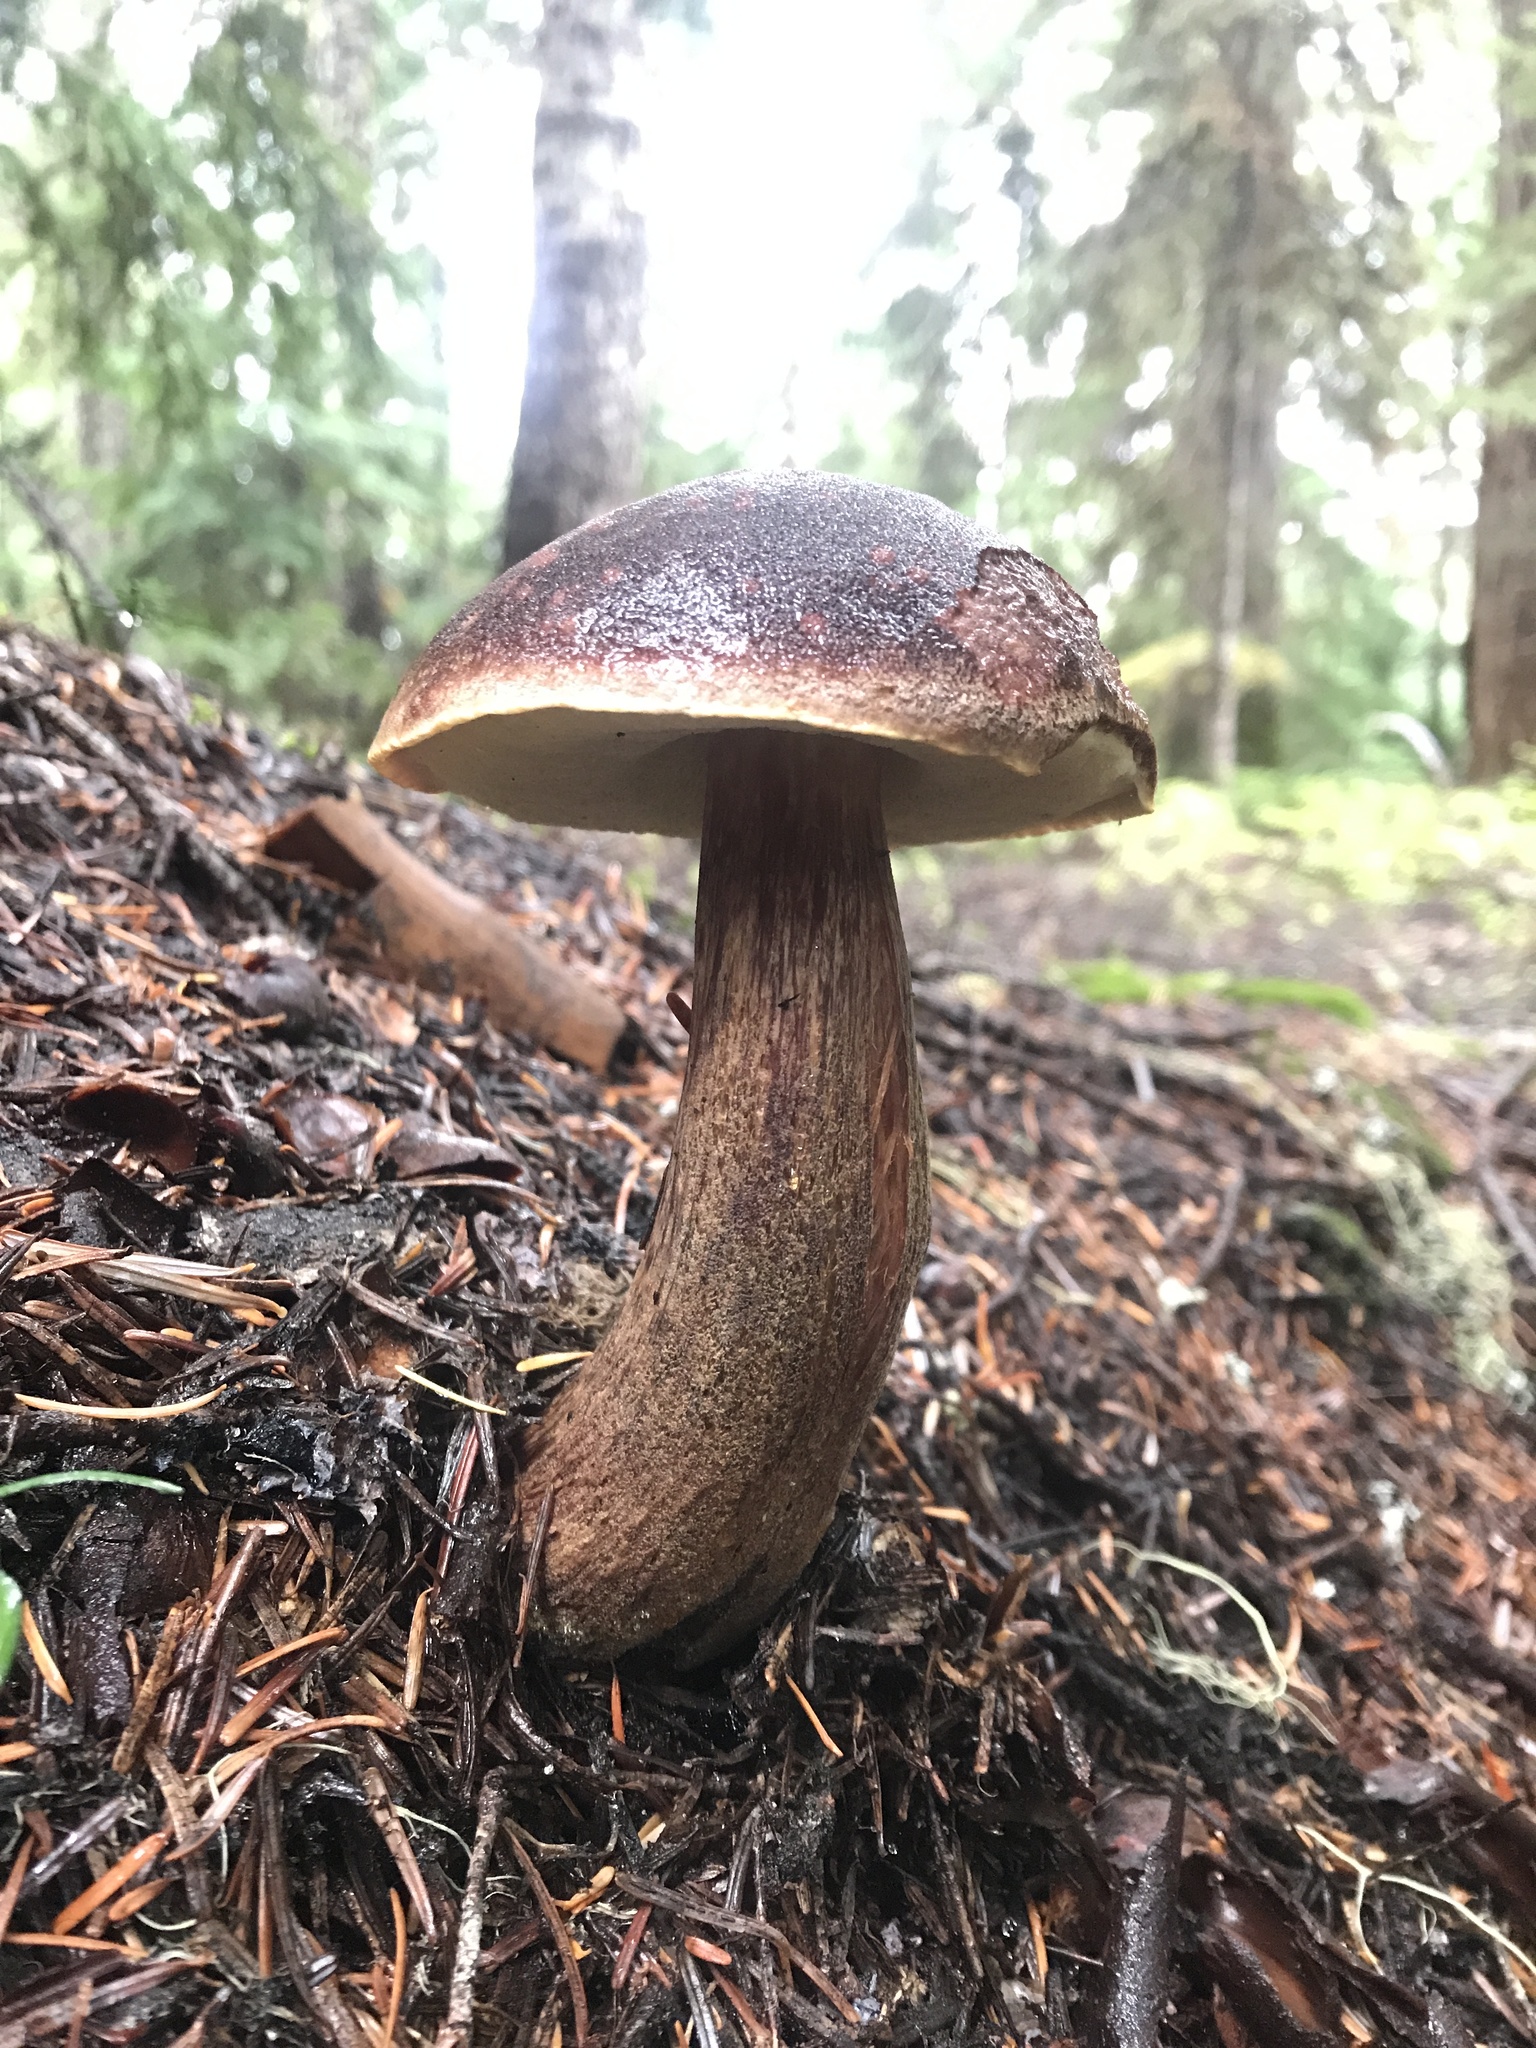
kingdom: Fungi
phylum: Basidiomycota
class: Agaricomycetes
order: Boletales
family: Boletaceae
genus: Aureoboletus
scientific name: Aureoboletus mirabilis
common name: Admirable bolete
